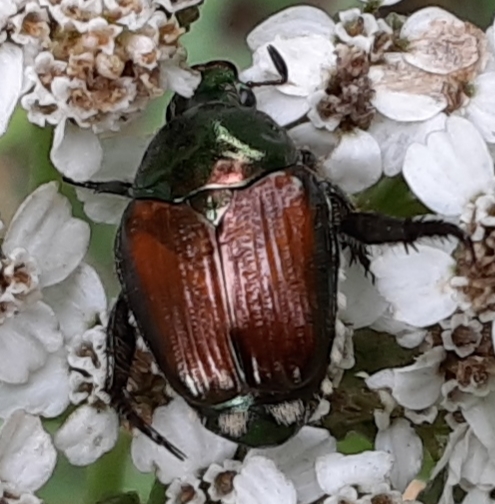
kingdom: Animalia
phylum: Arthropoda
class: Insecta
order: Coleoptera
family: Scarabaeidae
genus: Popillia
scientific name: Popillia japonica
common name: Japanese beetle
